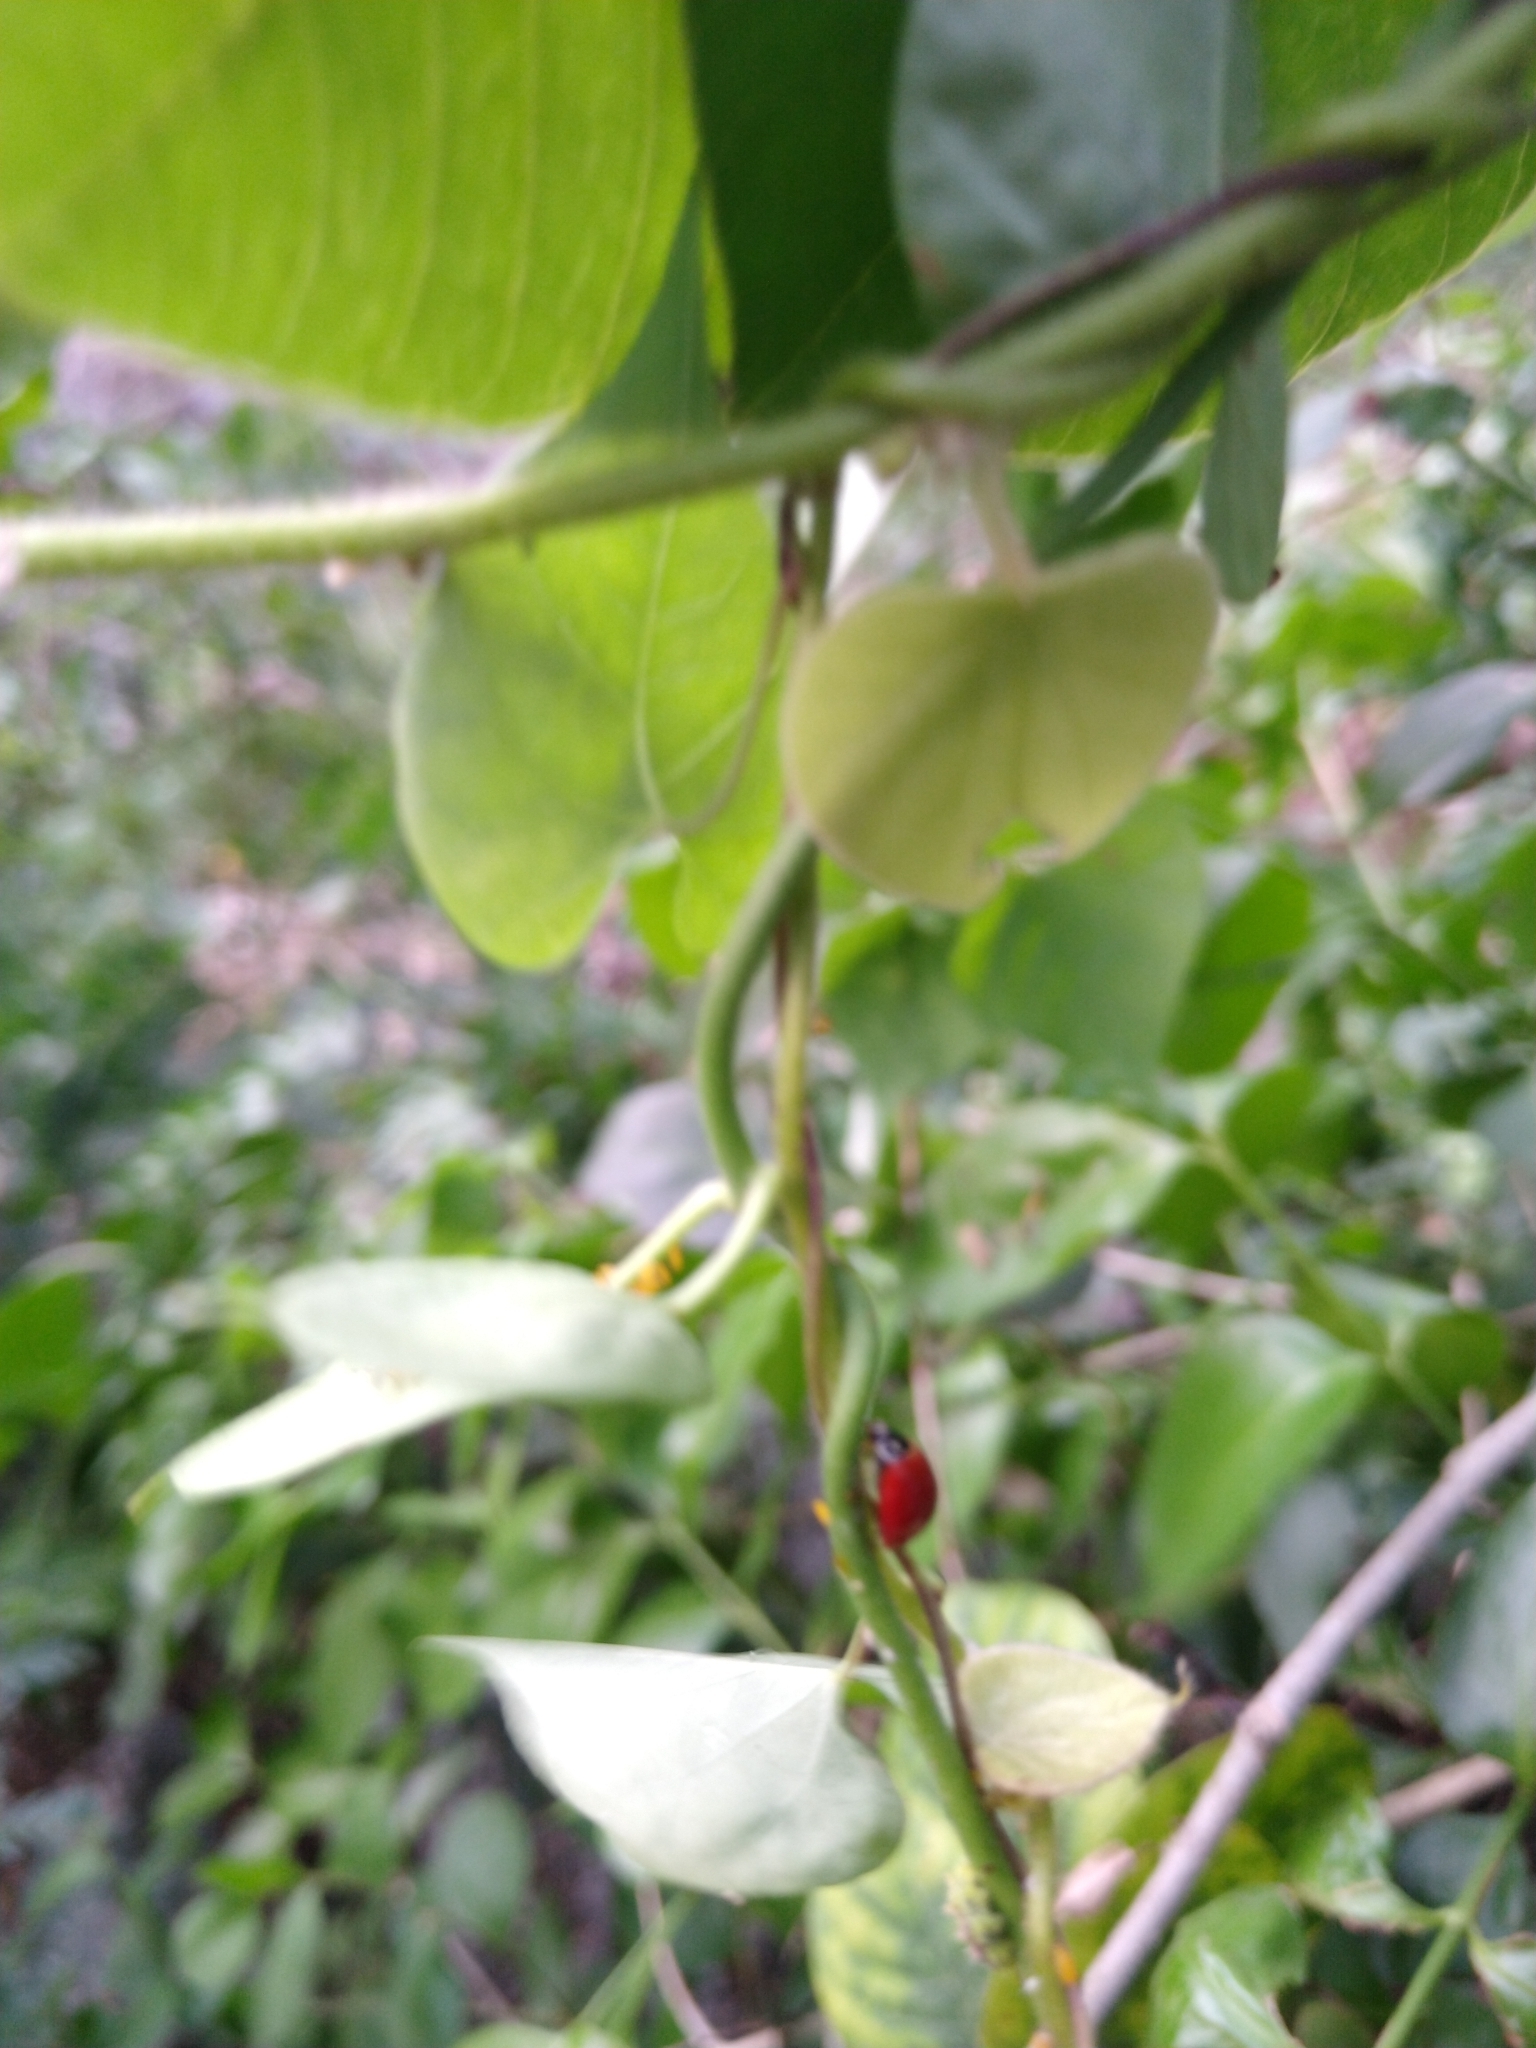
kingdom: Animalia
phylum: Arthropoda
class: Insecta
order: Coleoptera
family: Coccinellidae
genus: Cycloneda
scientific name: Cycloneda sanguinea
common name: Ladybird beetle
